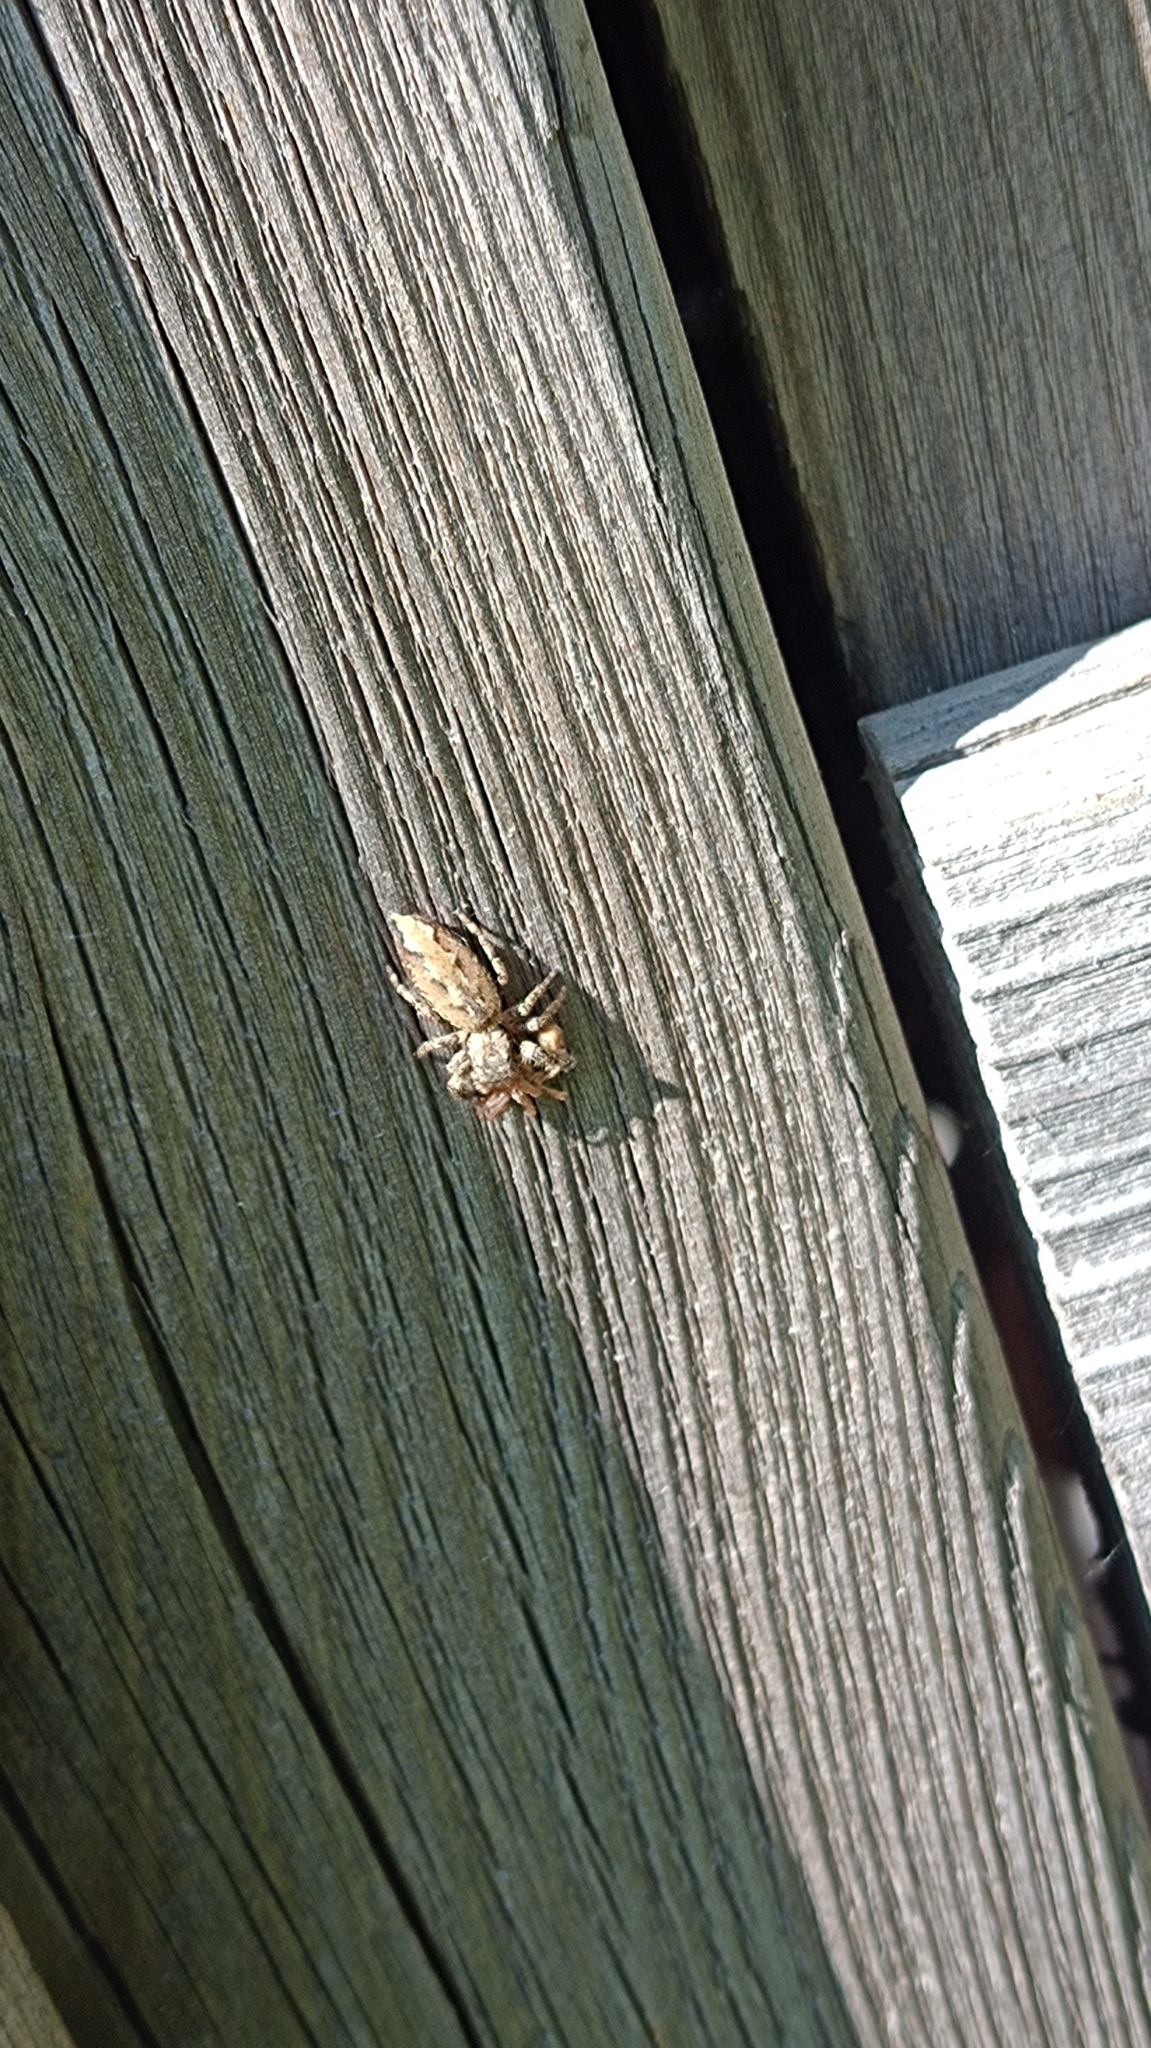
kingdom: Animalia
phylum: Arthropoda
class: Arachnida
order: Araneae
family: Salticidae
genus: Marpissa
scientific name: Marpissa muscosa
